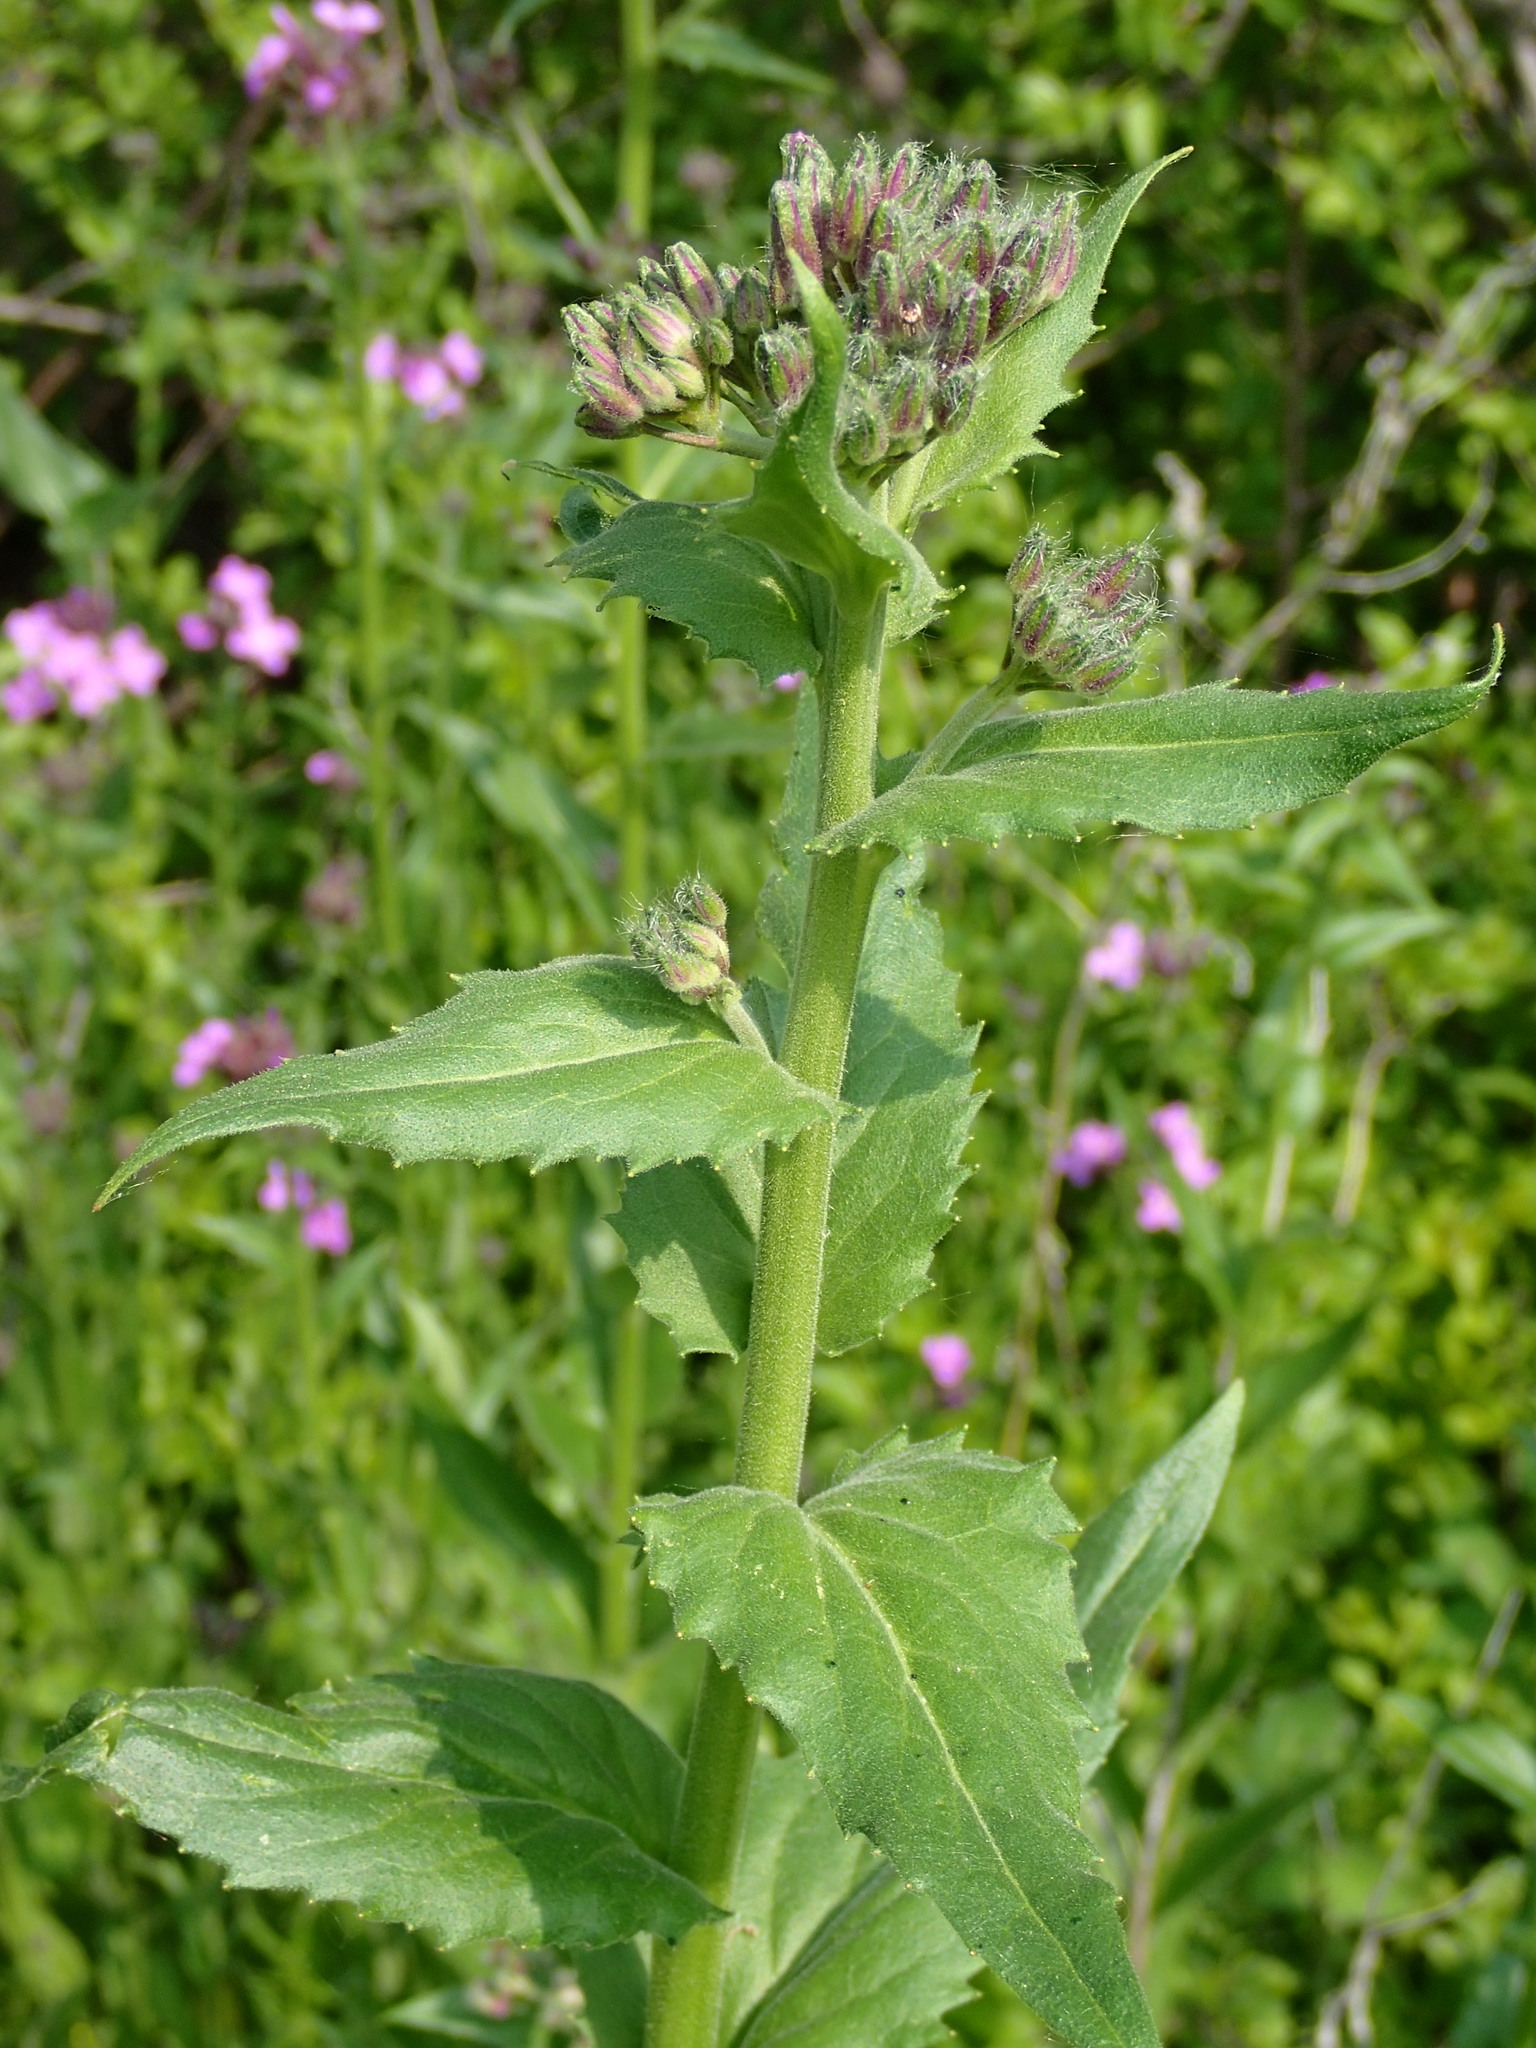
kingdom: Plantae
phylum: Tracheophyta
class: Magnoliopsida
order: Brassicales
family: Brassicaceae
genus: Hesperis
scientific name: Hesperis matronalis
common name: Dame's-violet
